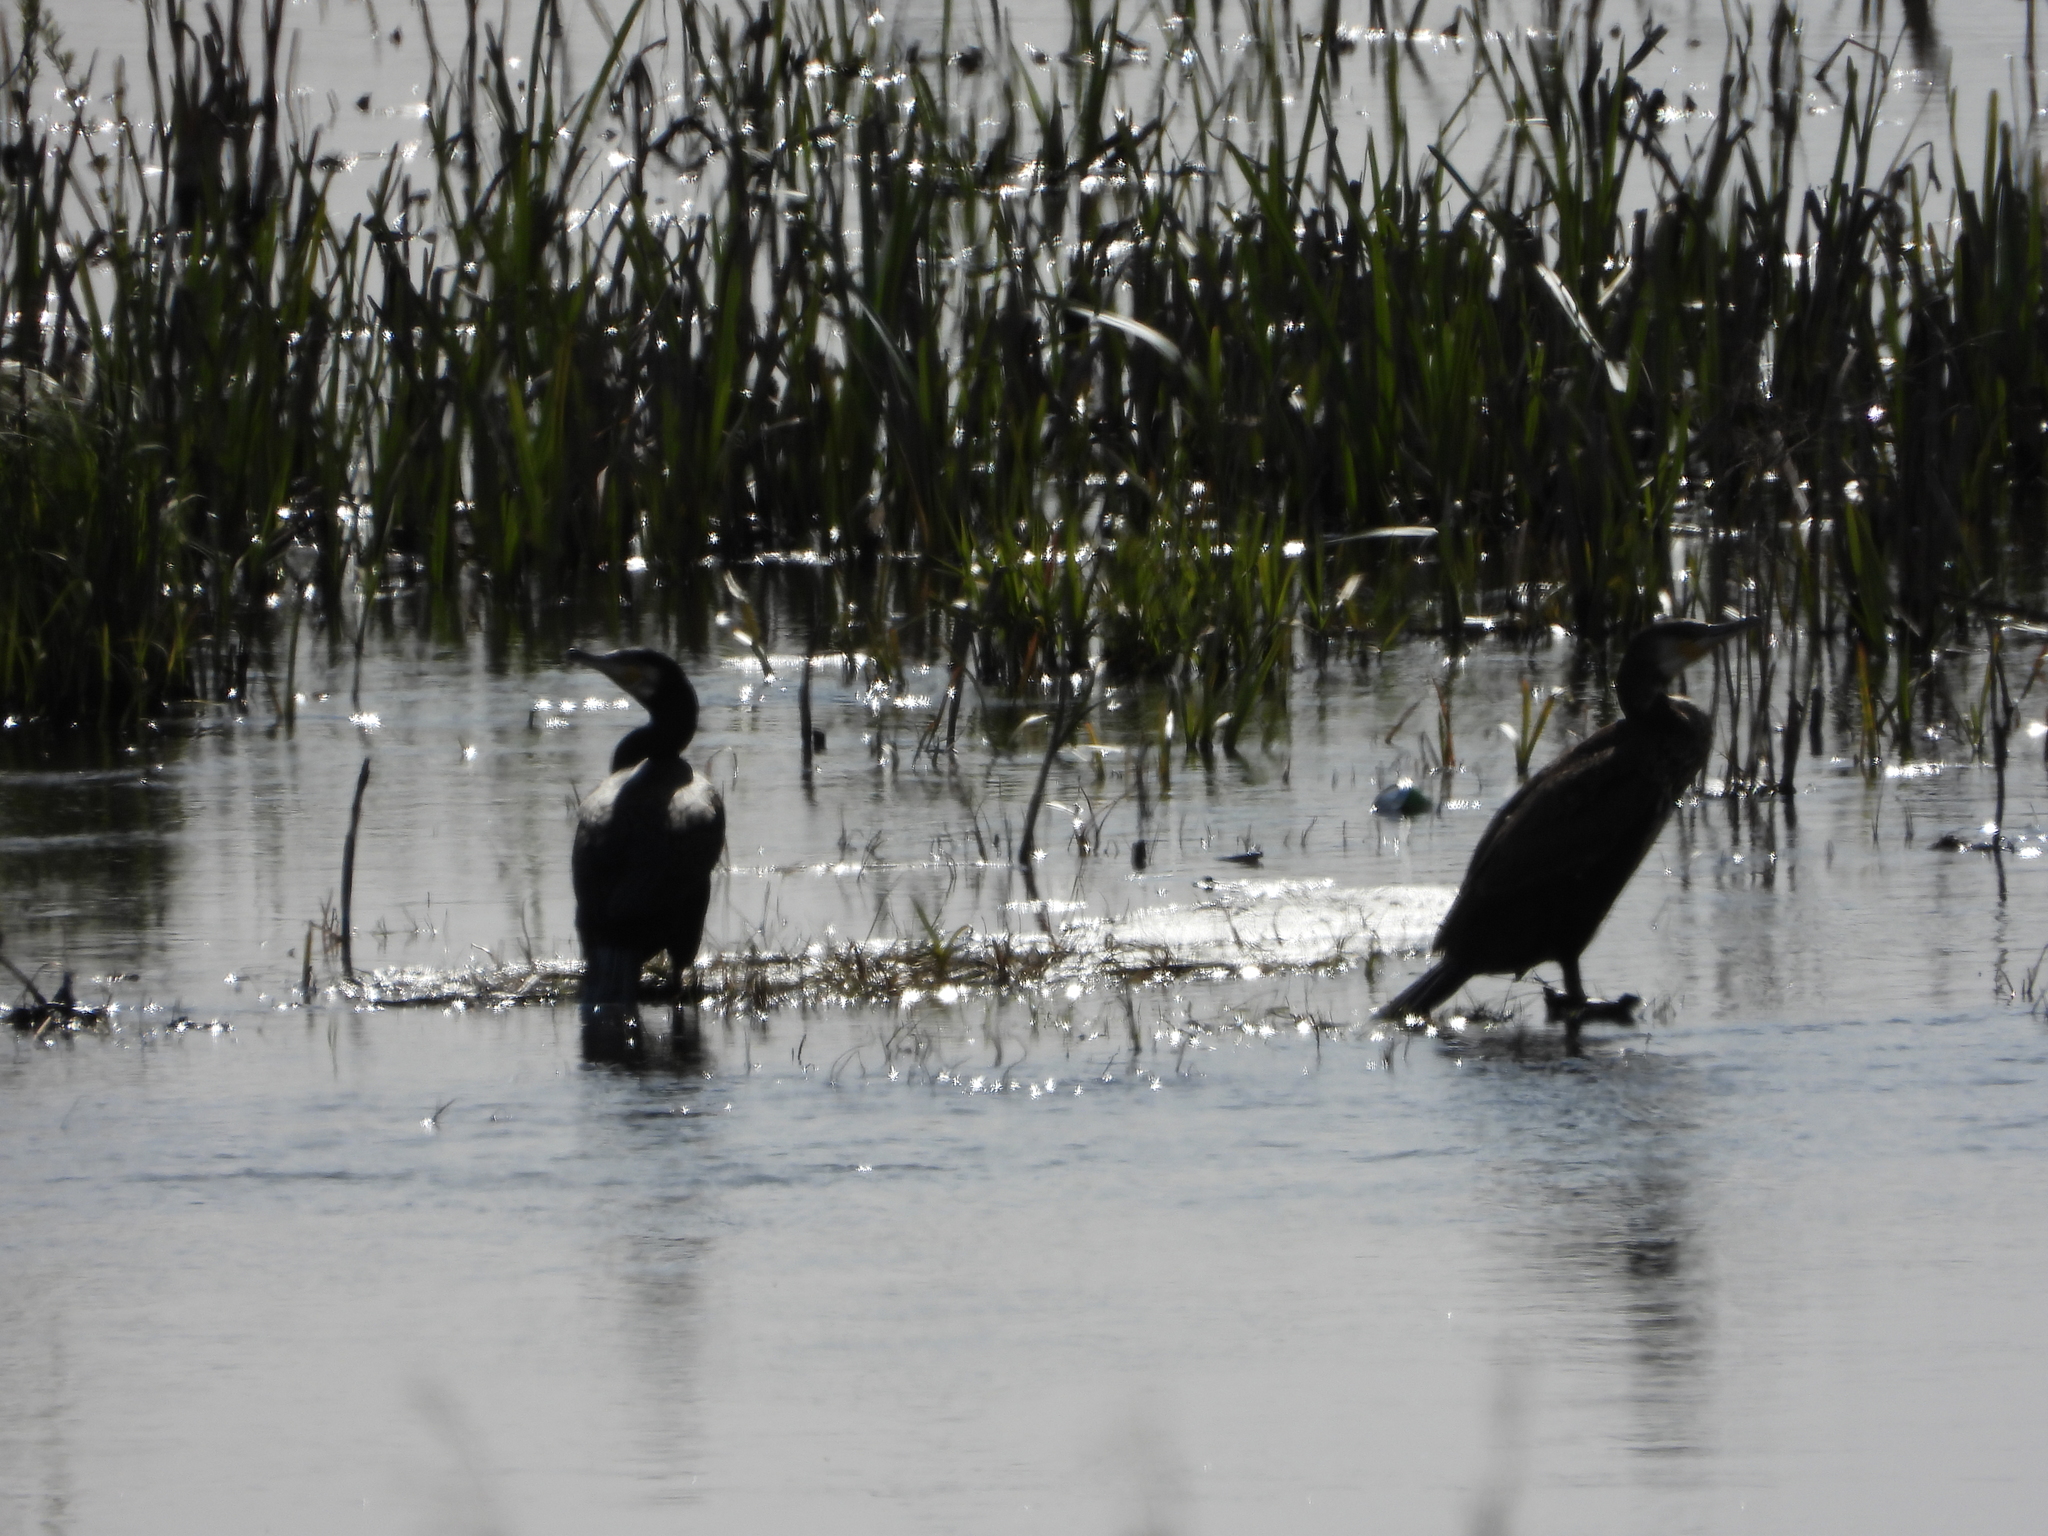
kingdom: Animalia
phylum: Chordata
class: Aves
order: Suliformes
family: Phalacrocoracidae
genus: Phalacrocorax
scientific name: Phalacrocorax carbo
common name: Great cormorant
